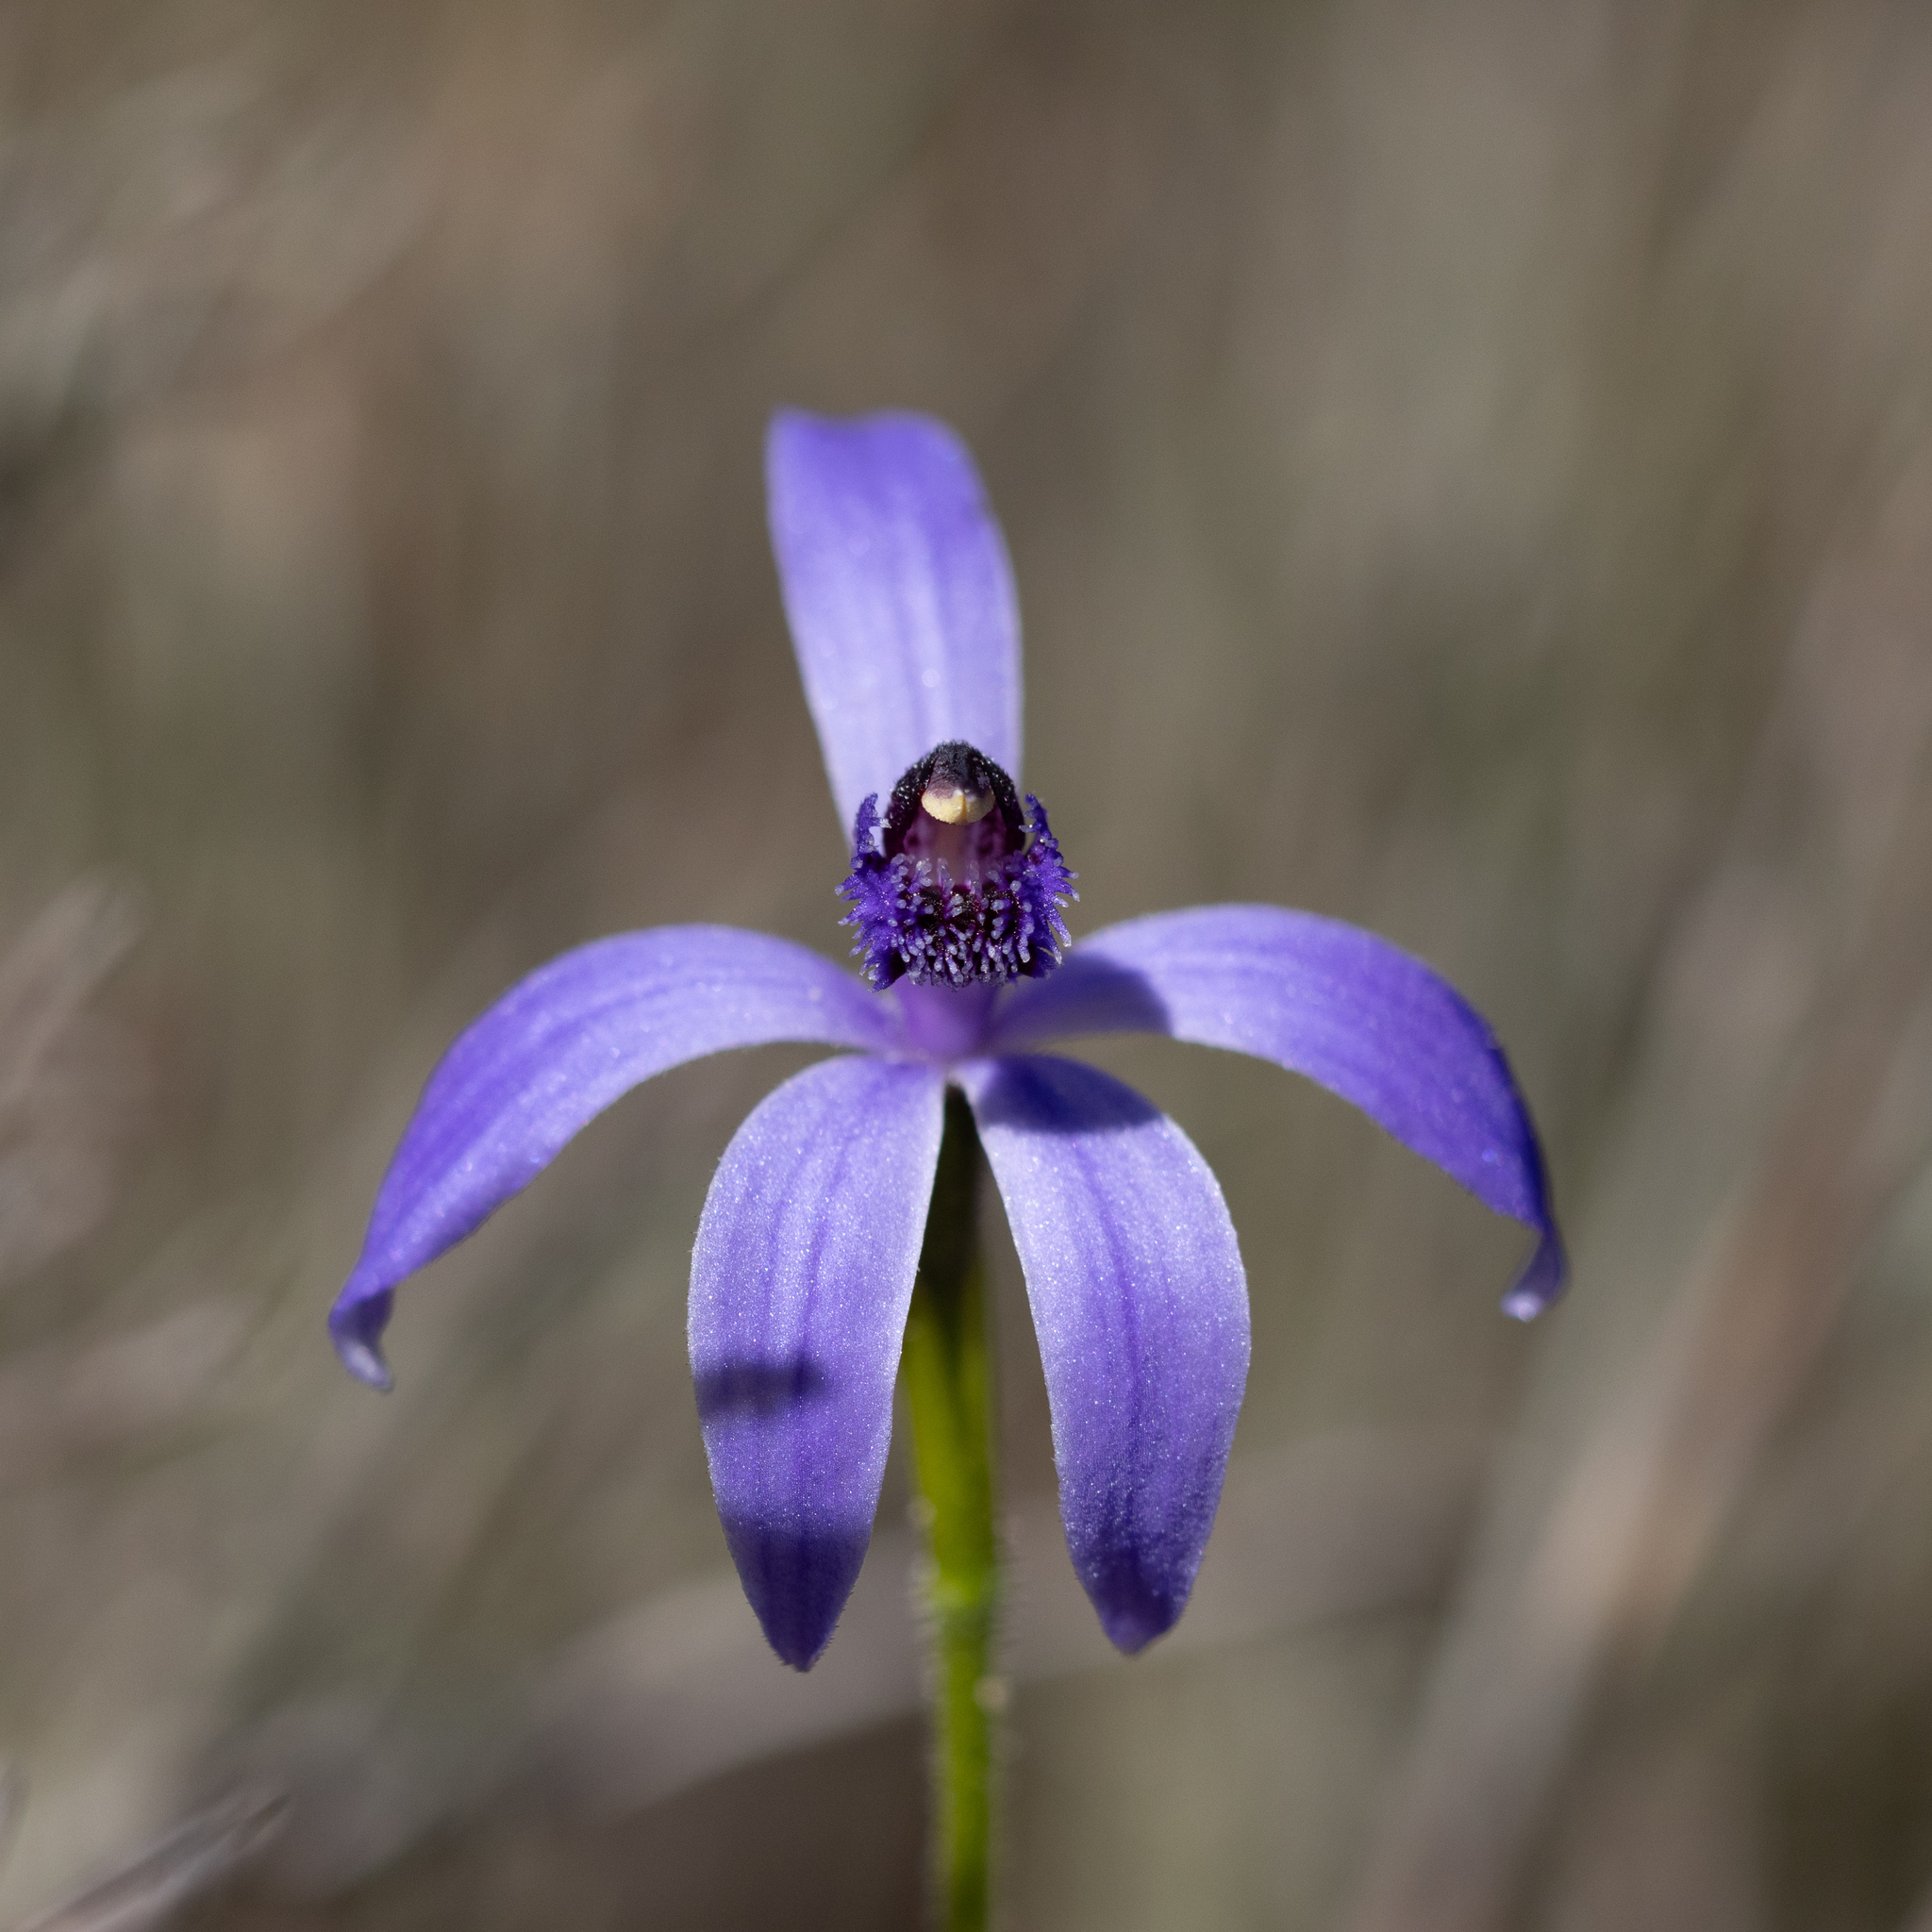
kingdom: Plantae
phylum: Tracheophyta
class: Liliopsida
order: Asparagales
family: Orchidaceae
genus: Pheladenia
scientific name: Pheladenia deformis
